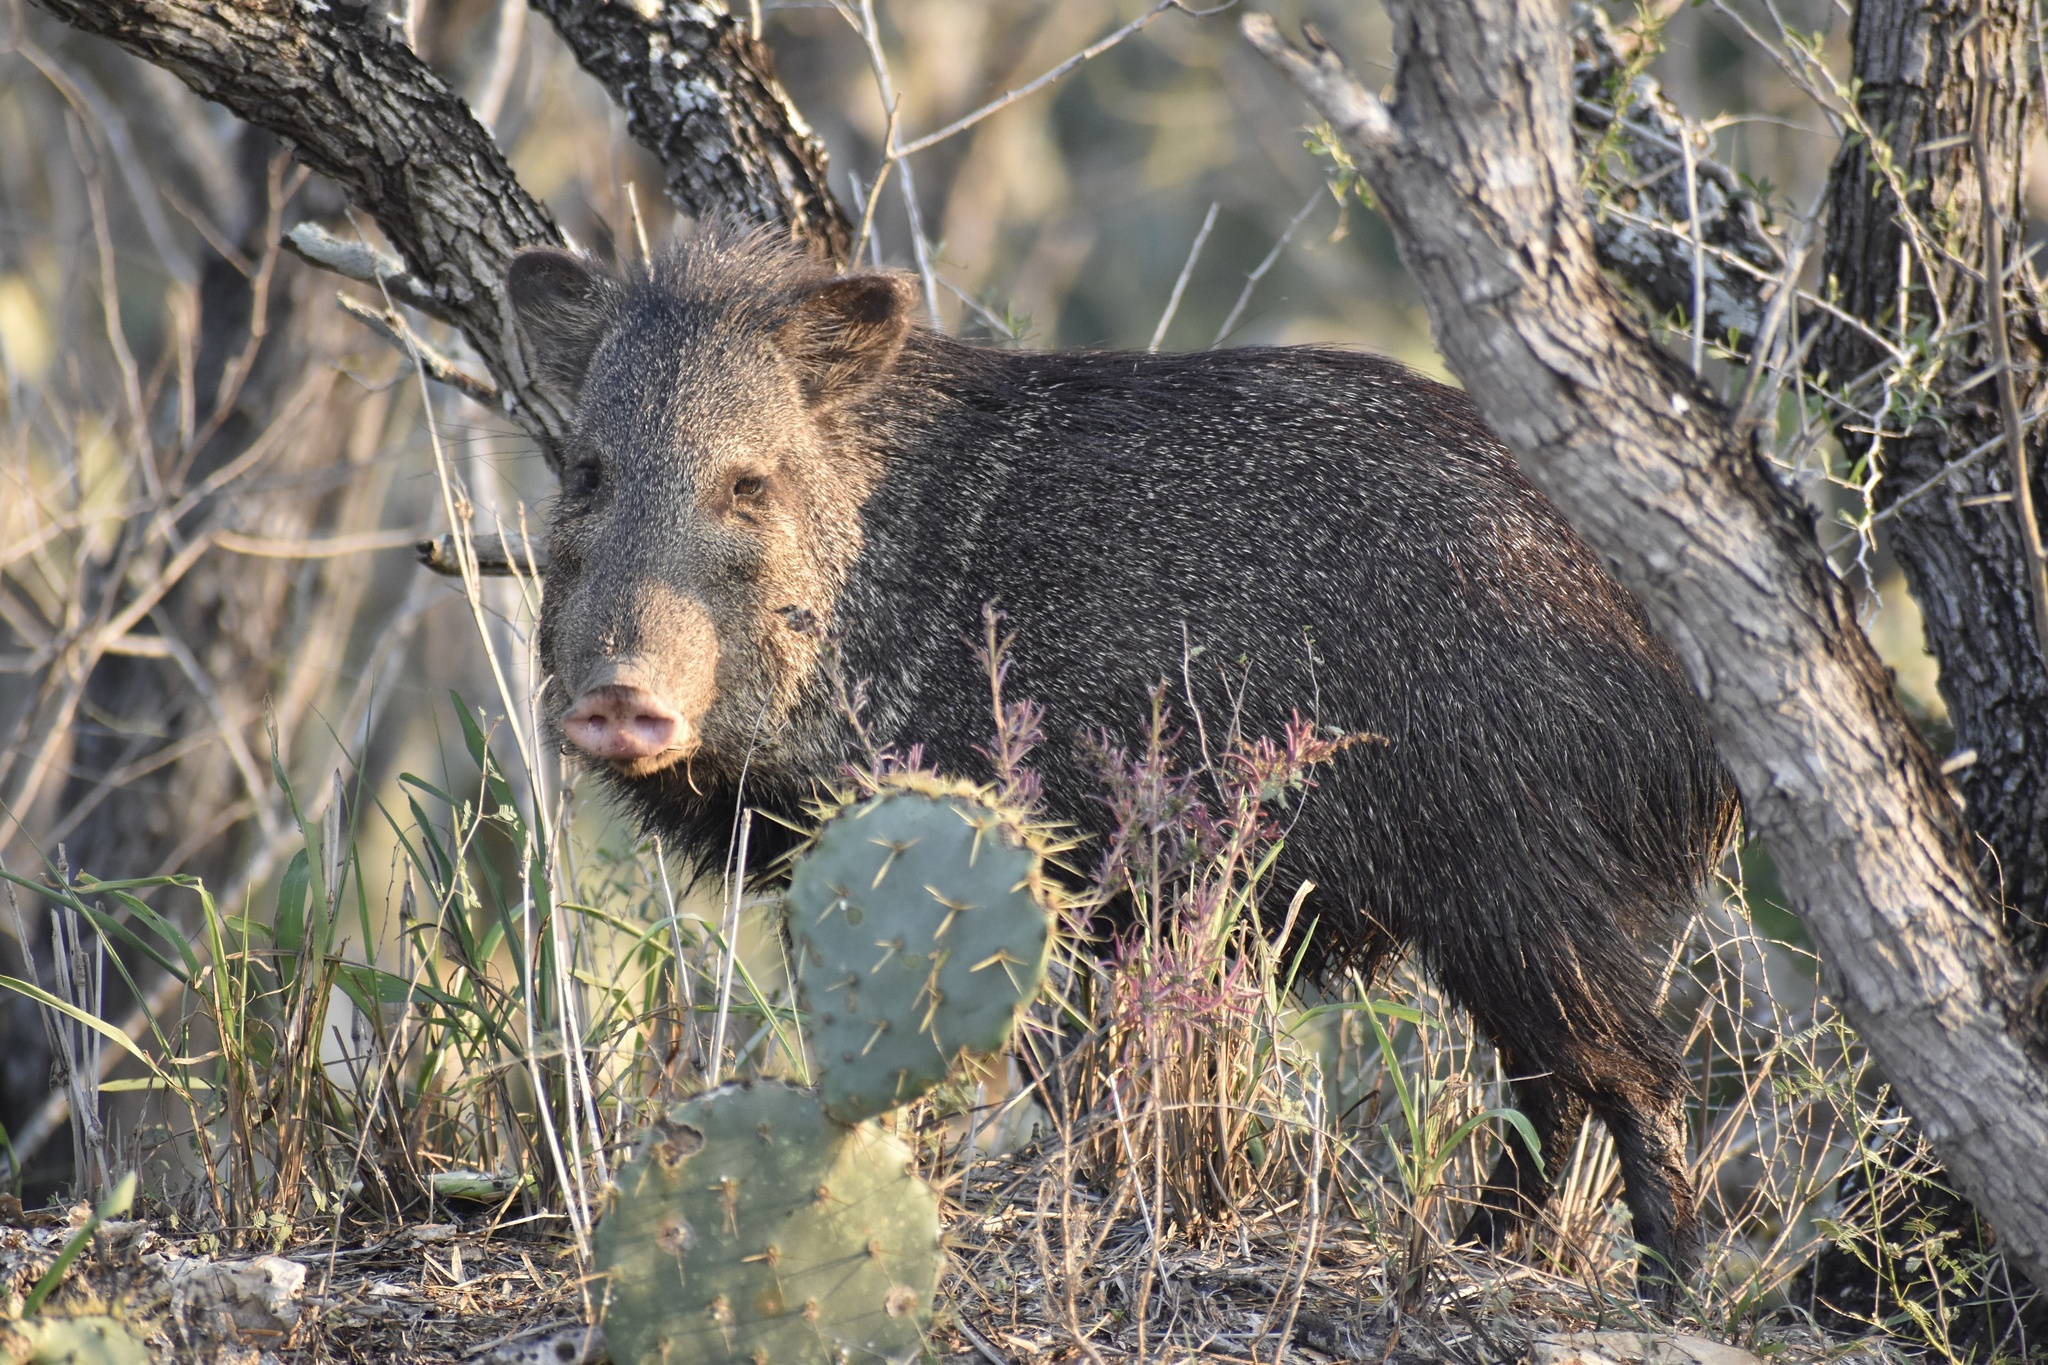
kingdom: Animalia
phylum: Chordata
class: Mammalia
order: Artiodactyla
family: Tayassuidae
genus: Pecari
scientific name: Pecari tajacu
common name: Collared peccary
